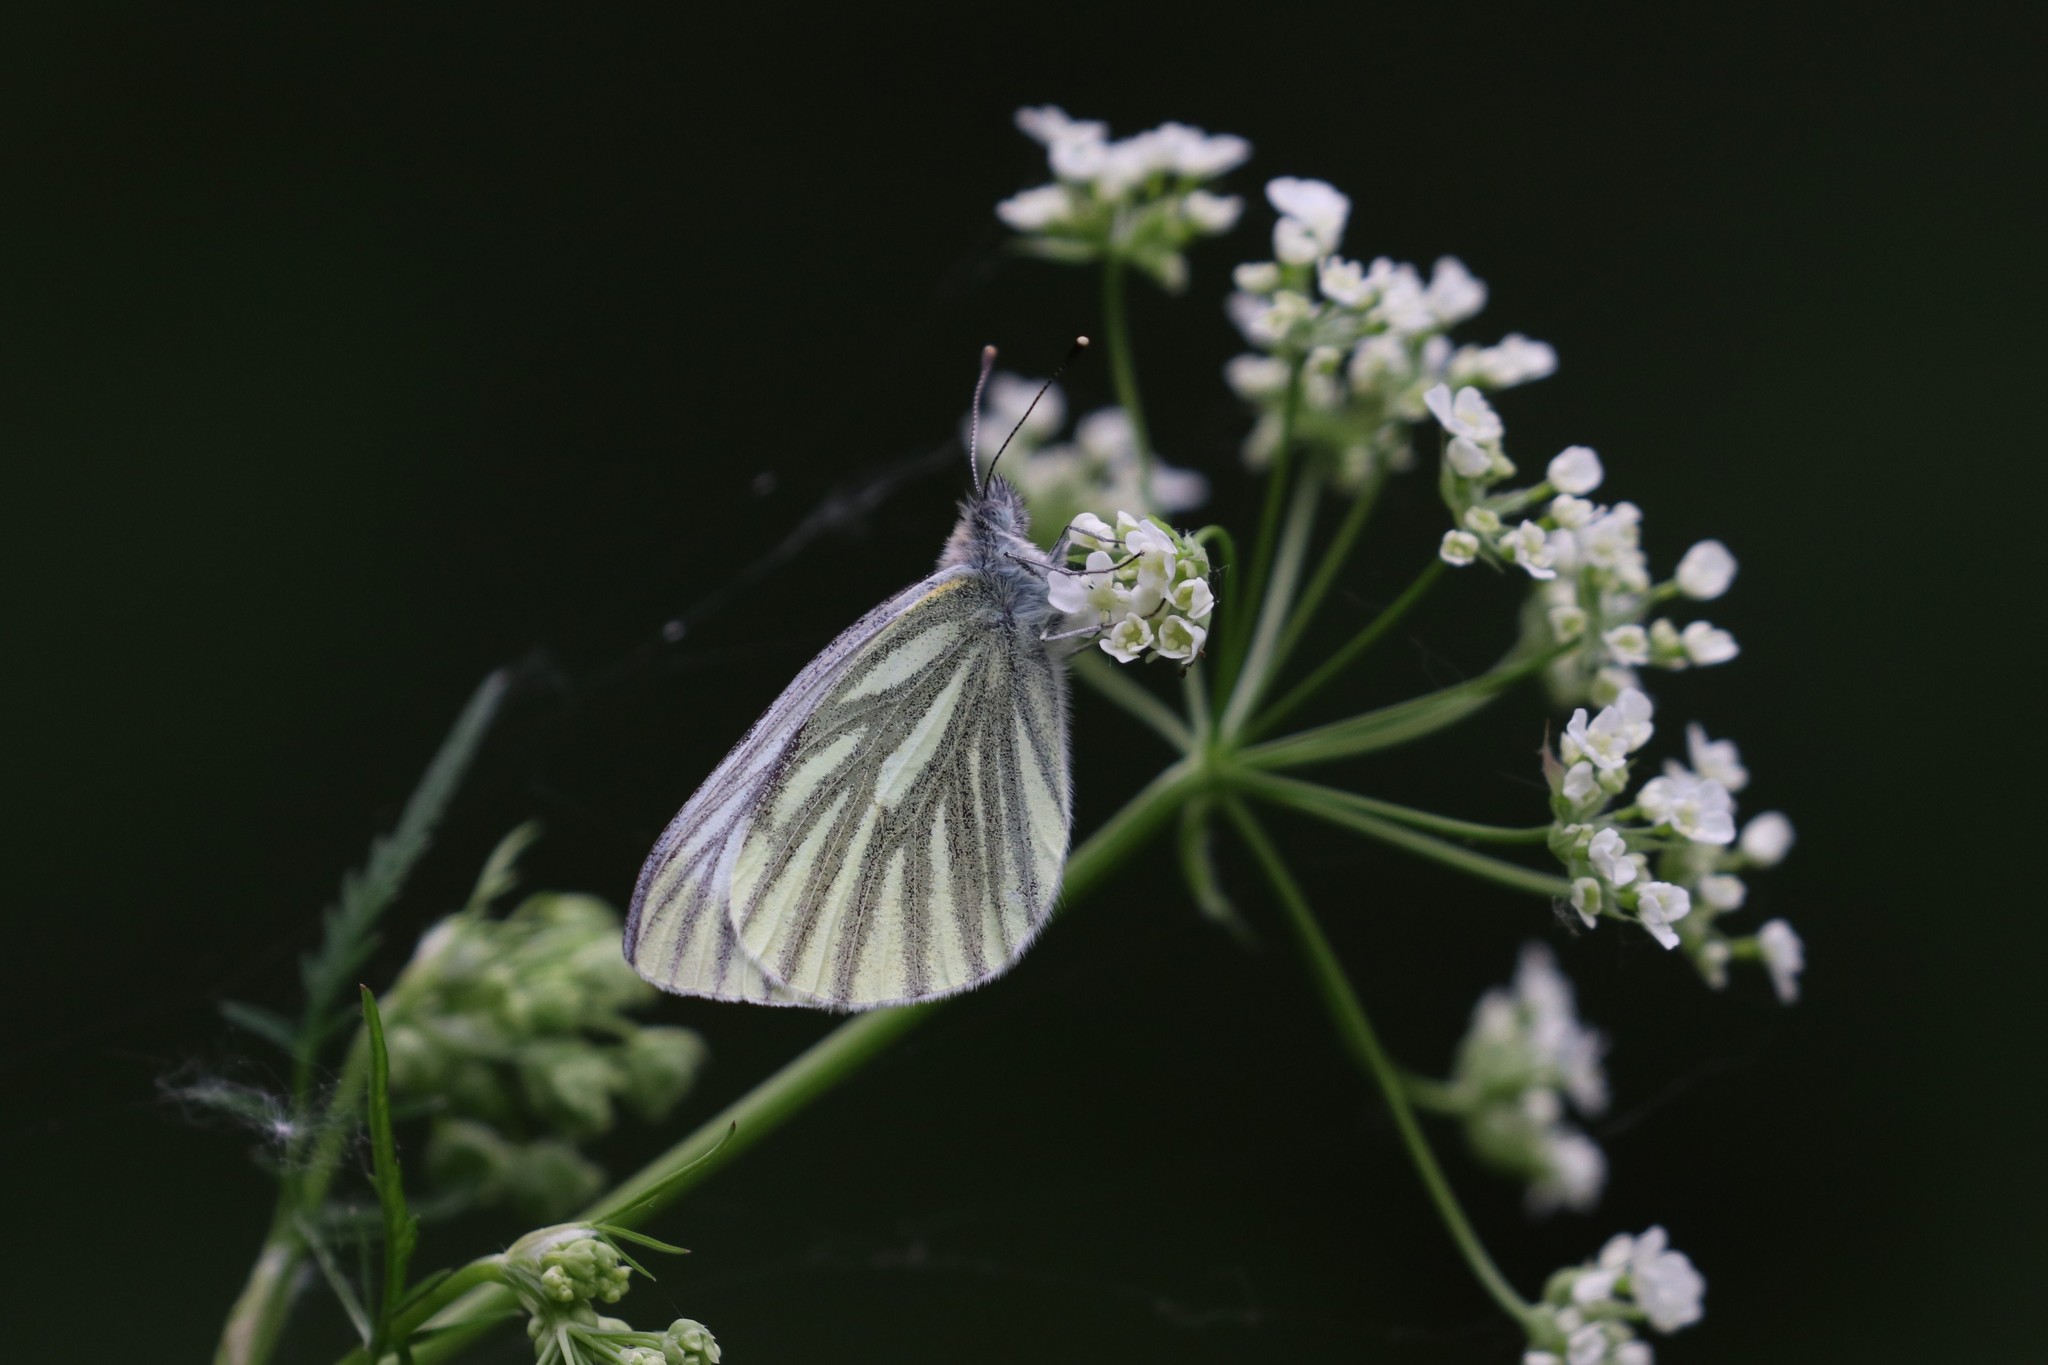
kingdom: Animalia
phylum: Arthropoda
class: Insecta
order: Lepidoptera
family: Pieridae
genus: Pieris
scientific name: Pieris napi
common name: Green-veined white
